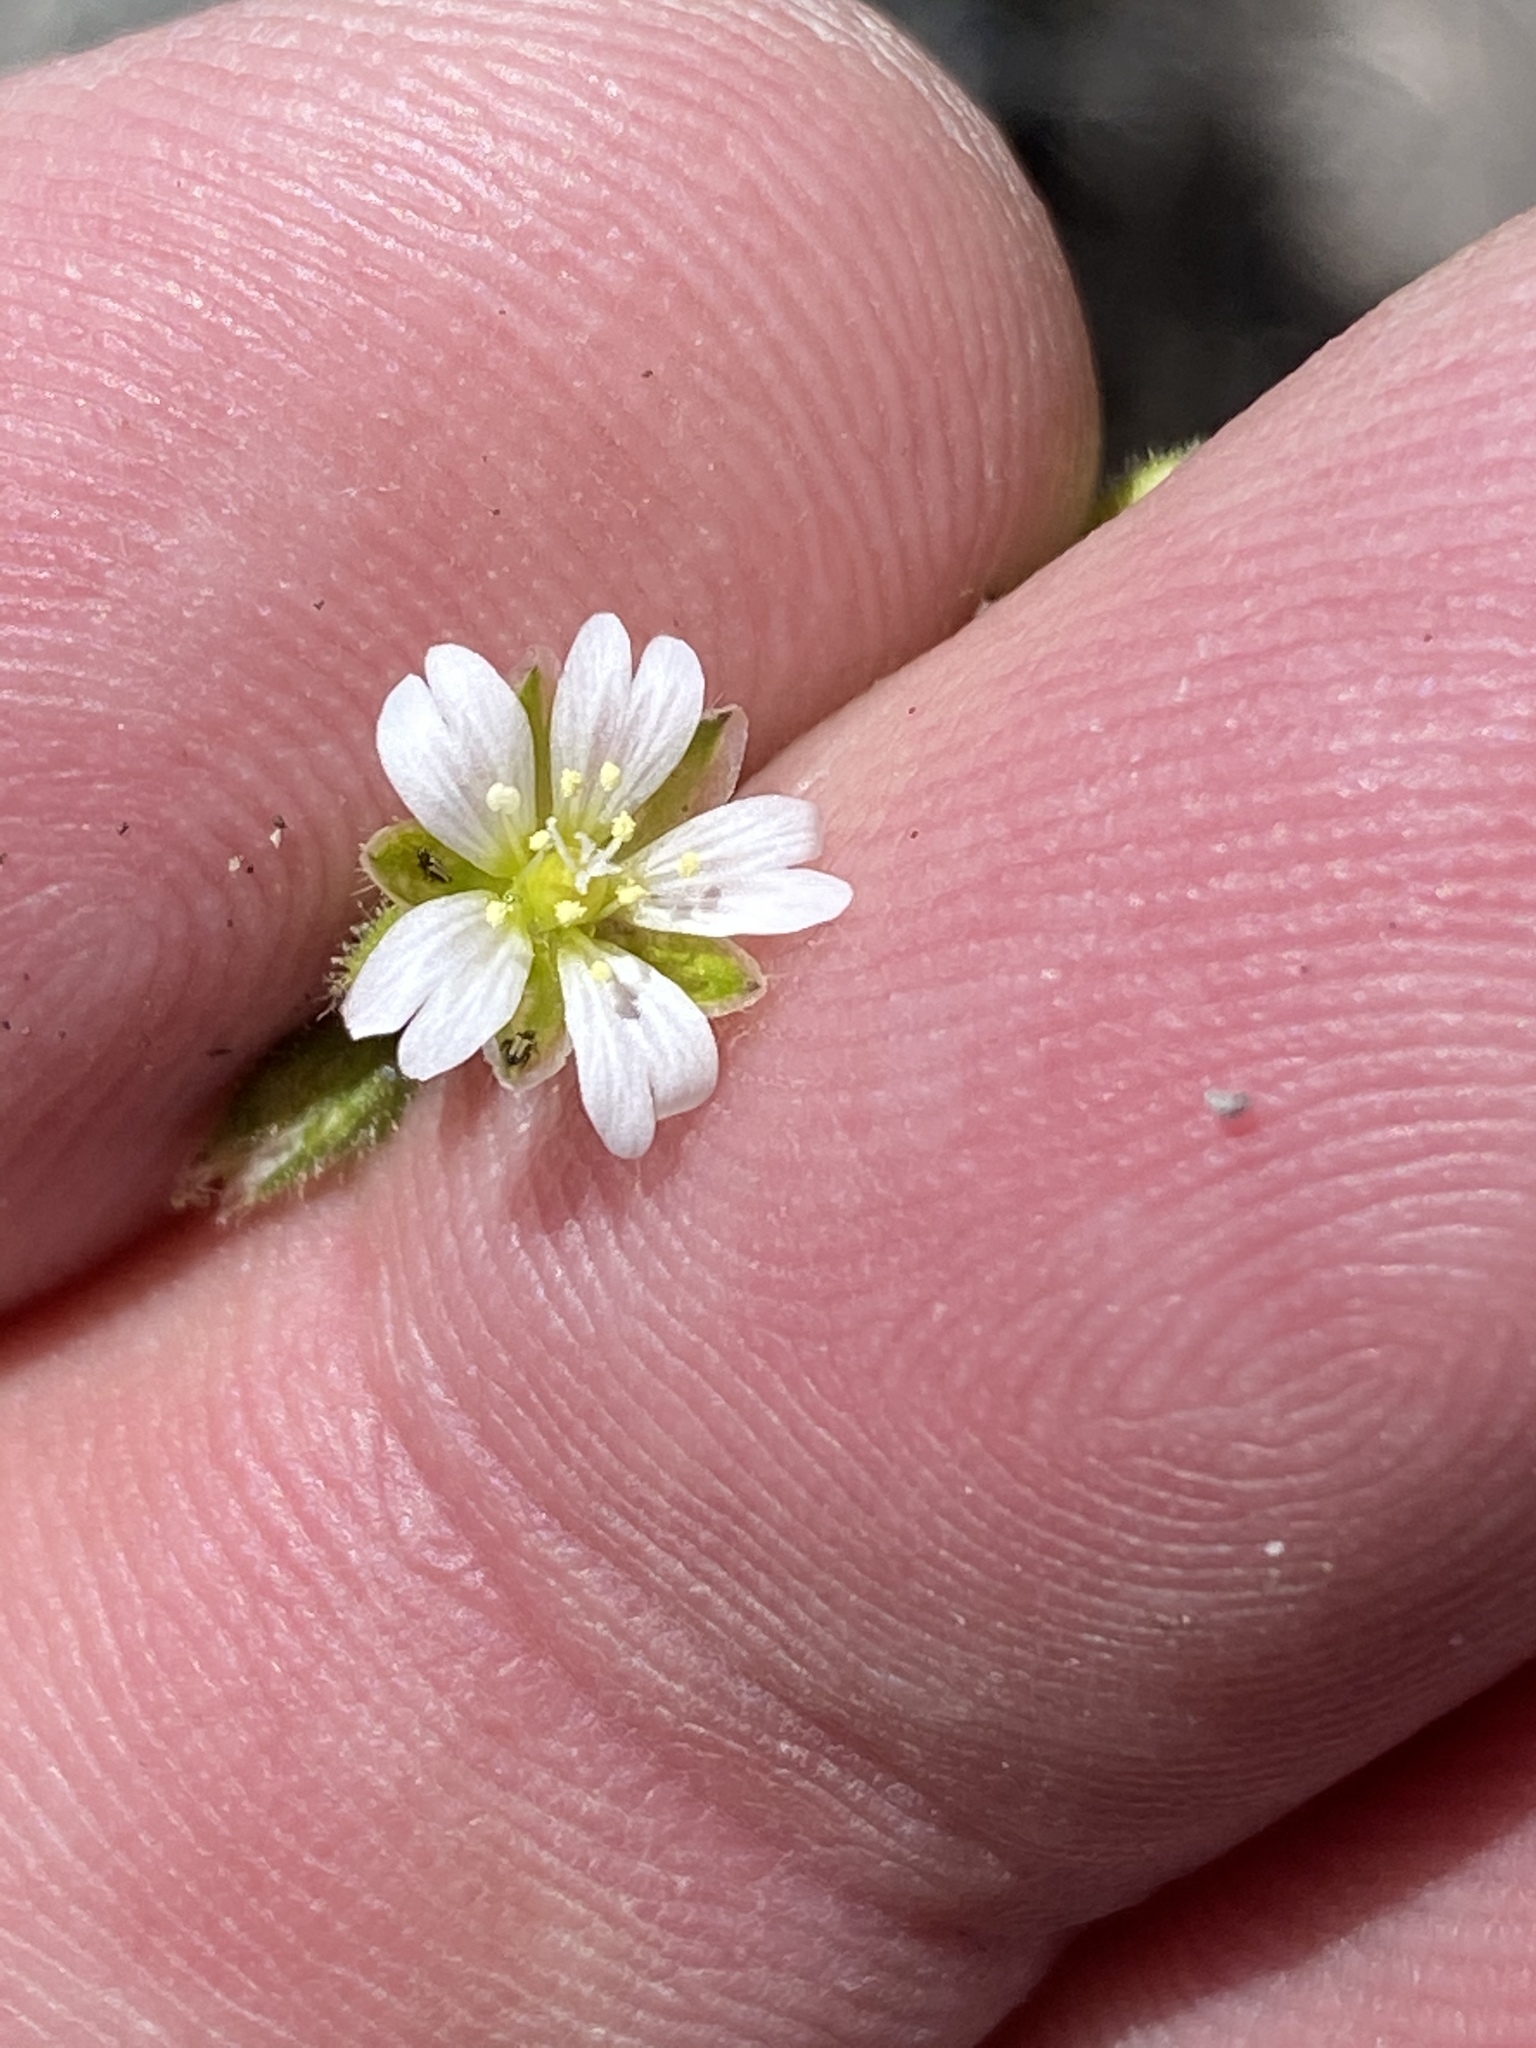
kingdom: Plantae
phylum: Tracheophyta
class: Magnoliopsida
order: Caryophyllales
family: Caryophyllaceae
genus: Cerastium
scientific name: Cerastium capense
